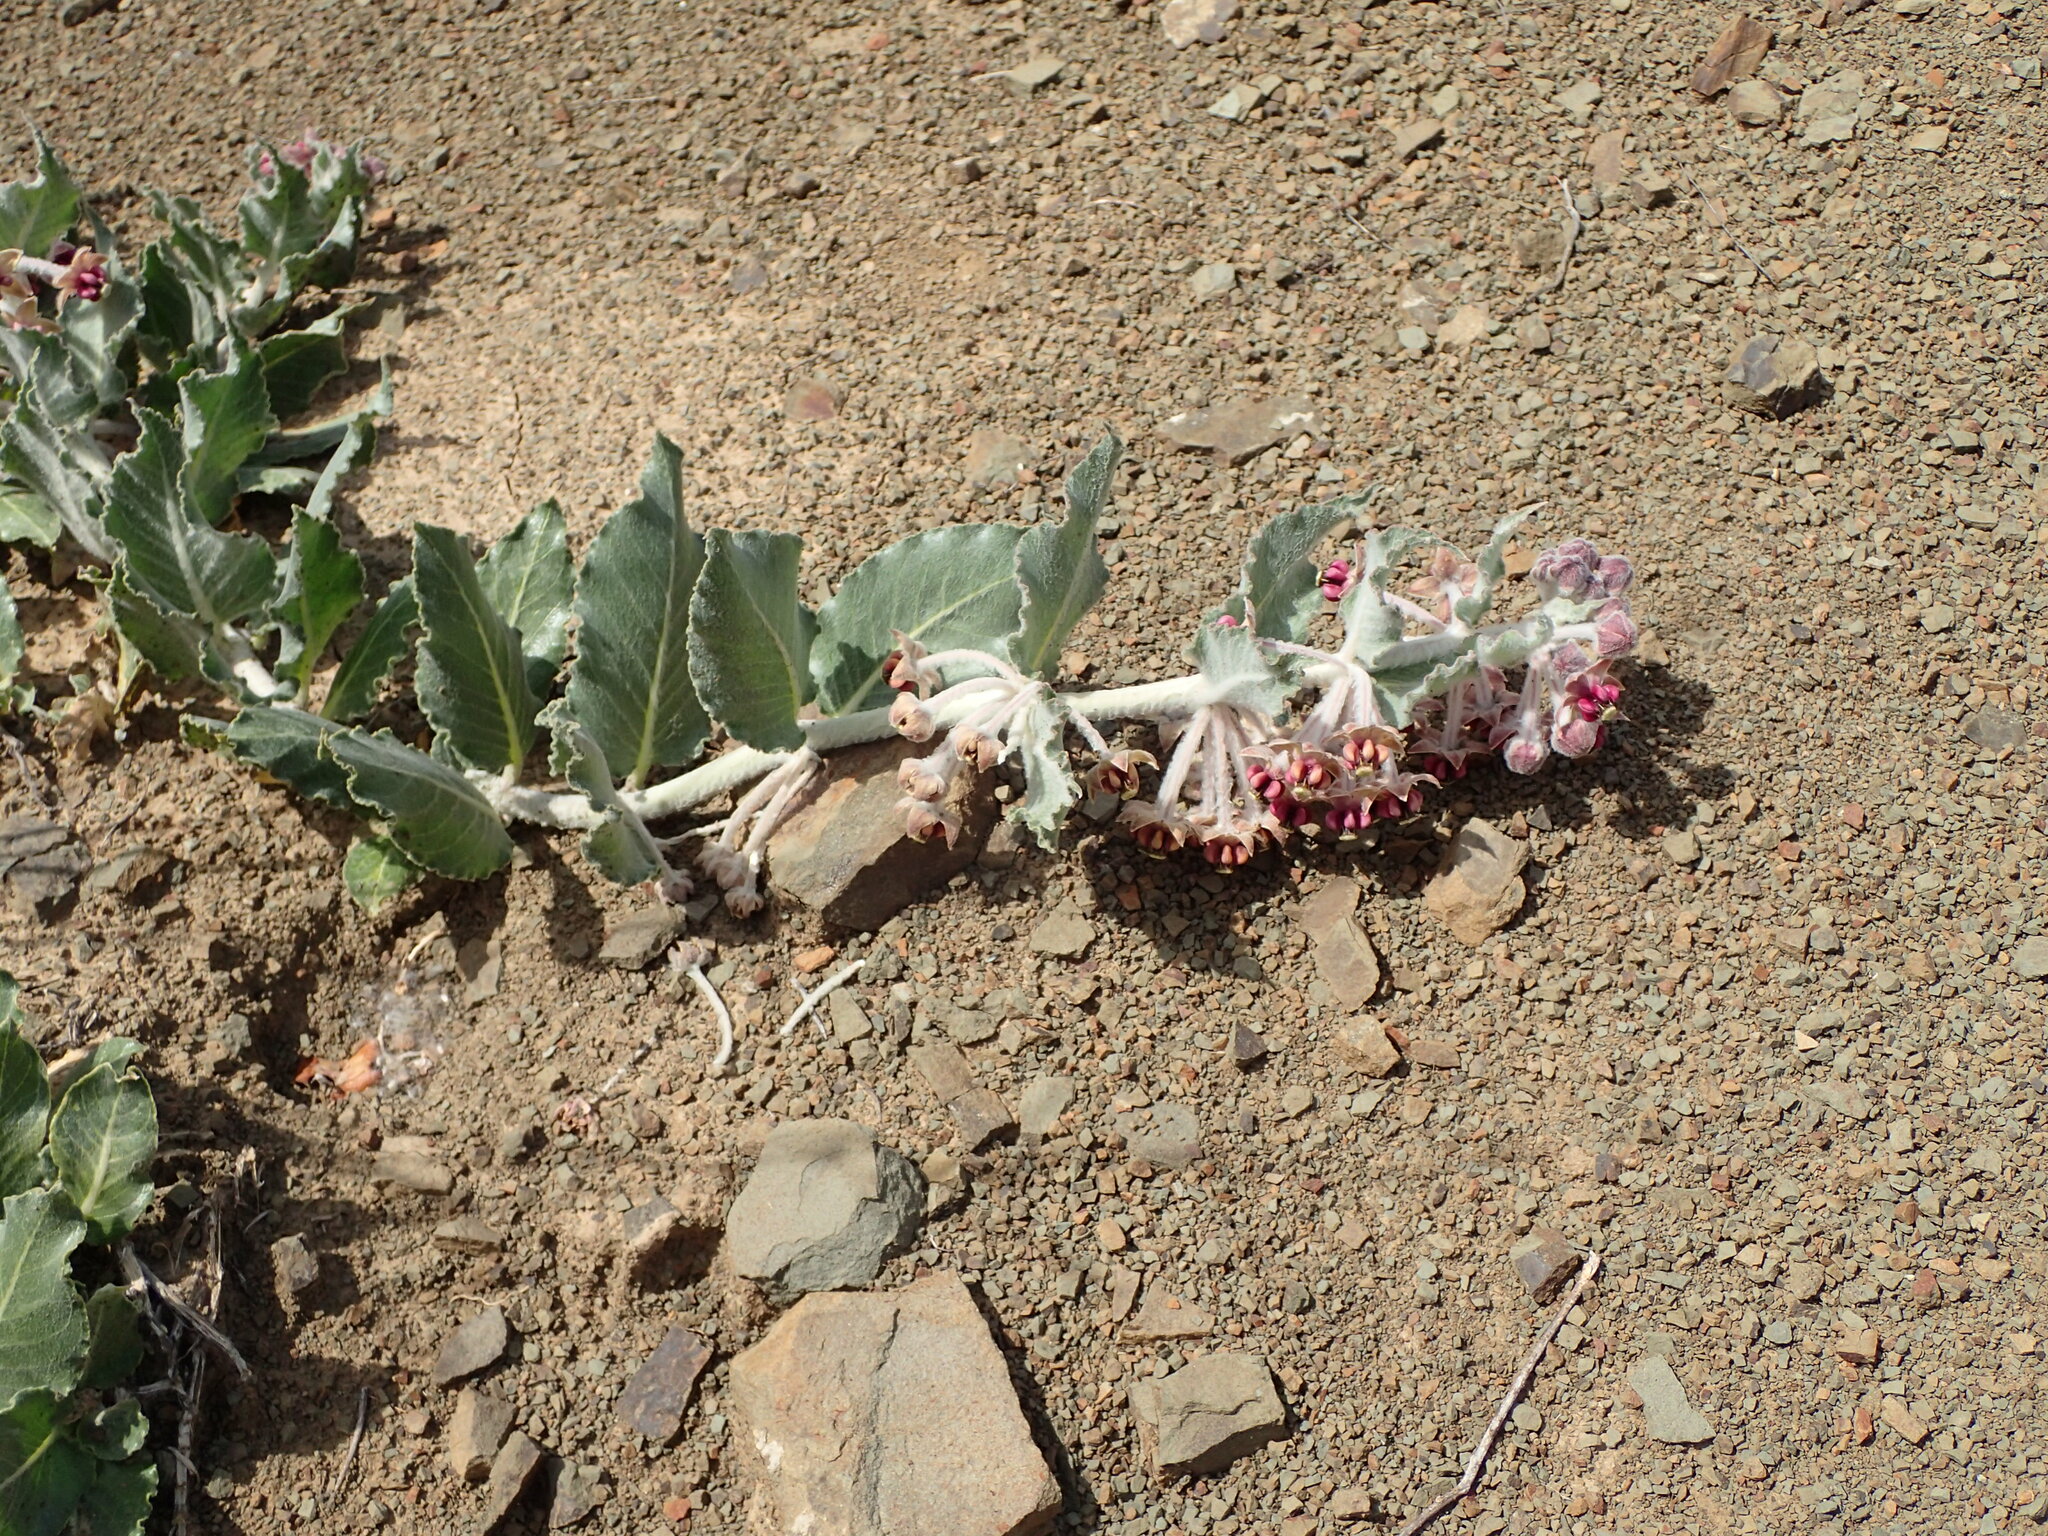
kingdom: Plantae
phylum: Tracheophyta
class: Magnoliopsida
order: Gentianales
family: Apocynaceae
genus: Asclepias
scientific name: Asclepias californica
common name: California milkweed
